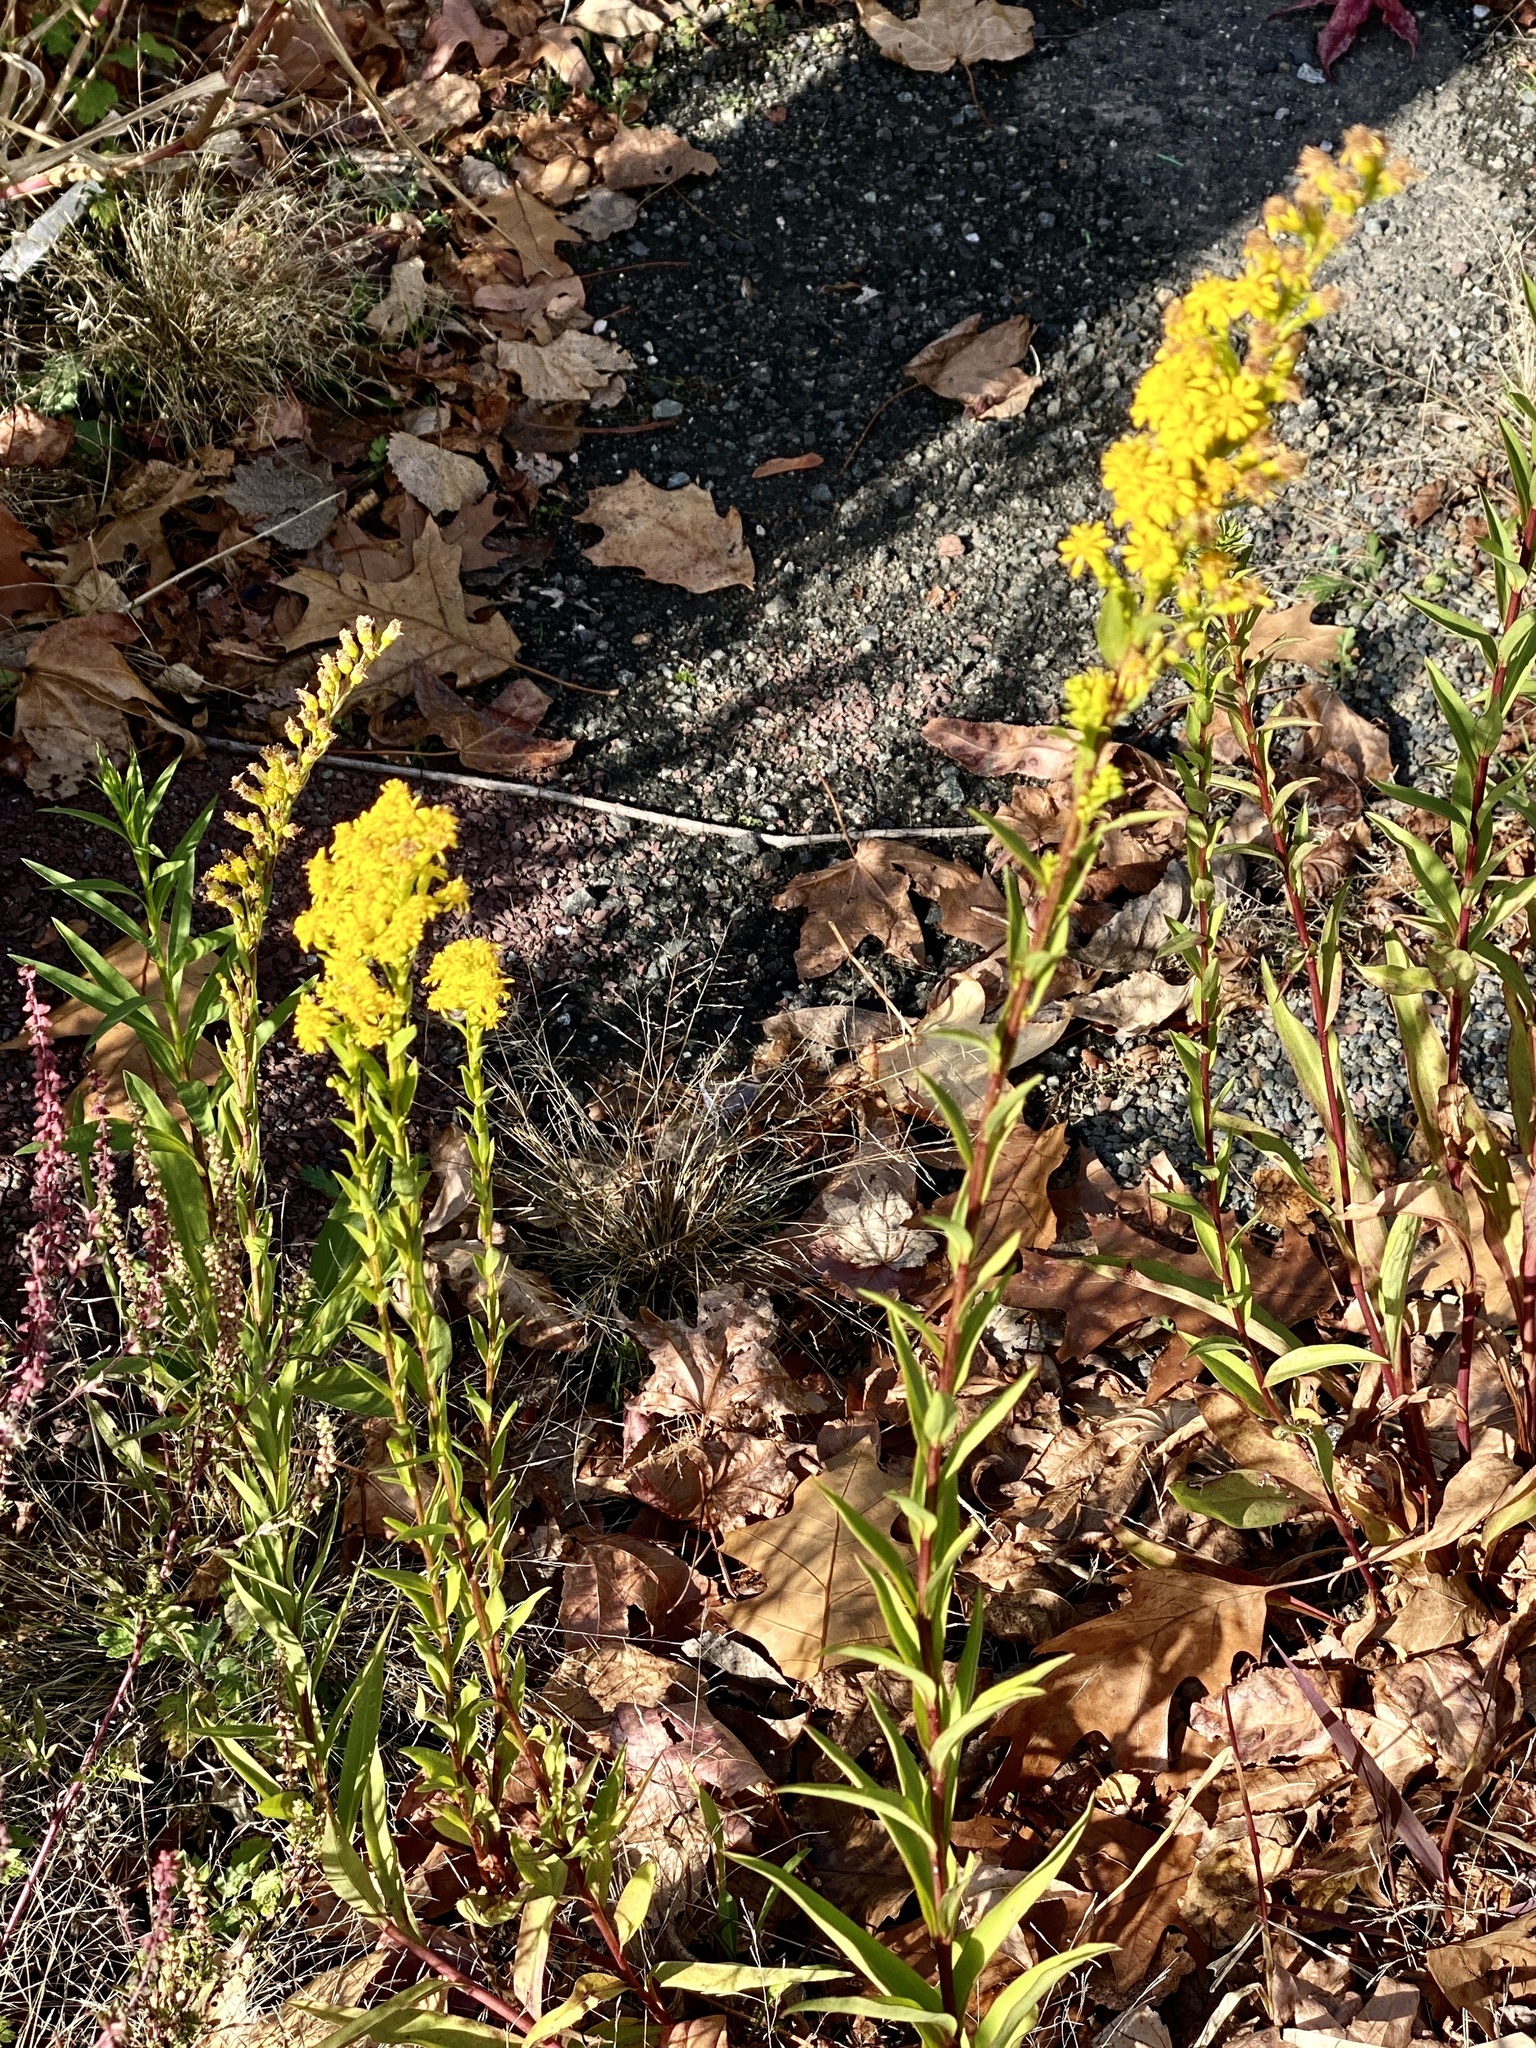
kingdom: Plantae
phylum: Tracheophyta
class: Magnoliopsida
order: Asterales
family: Asteraceae
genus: Solidago
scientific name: Solidago sempervirens
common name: Salt-marsh goldenrod
